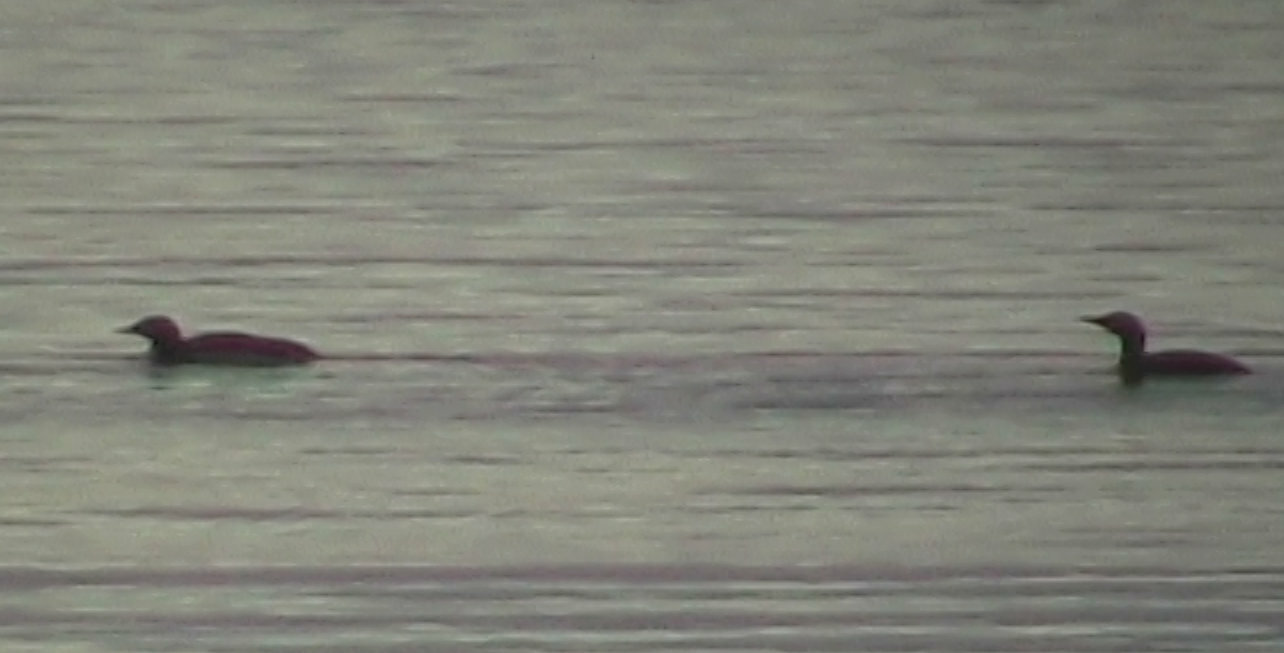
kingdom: Animalia
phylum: Chordata
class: Aves
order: Gaviiformes
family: Gaviidae
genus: Gavia
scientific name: Gavia stellata
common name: Red-throated loon
